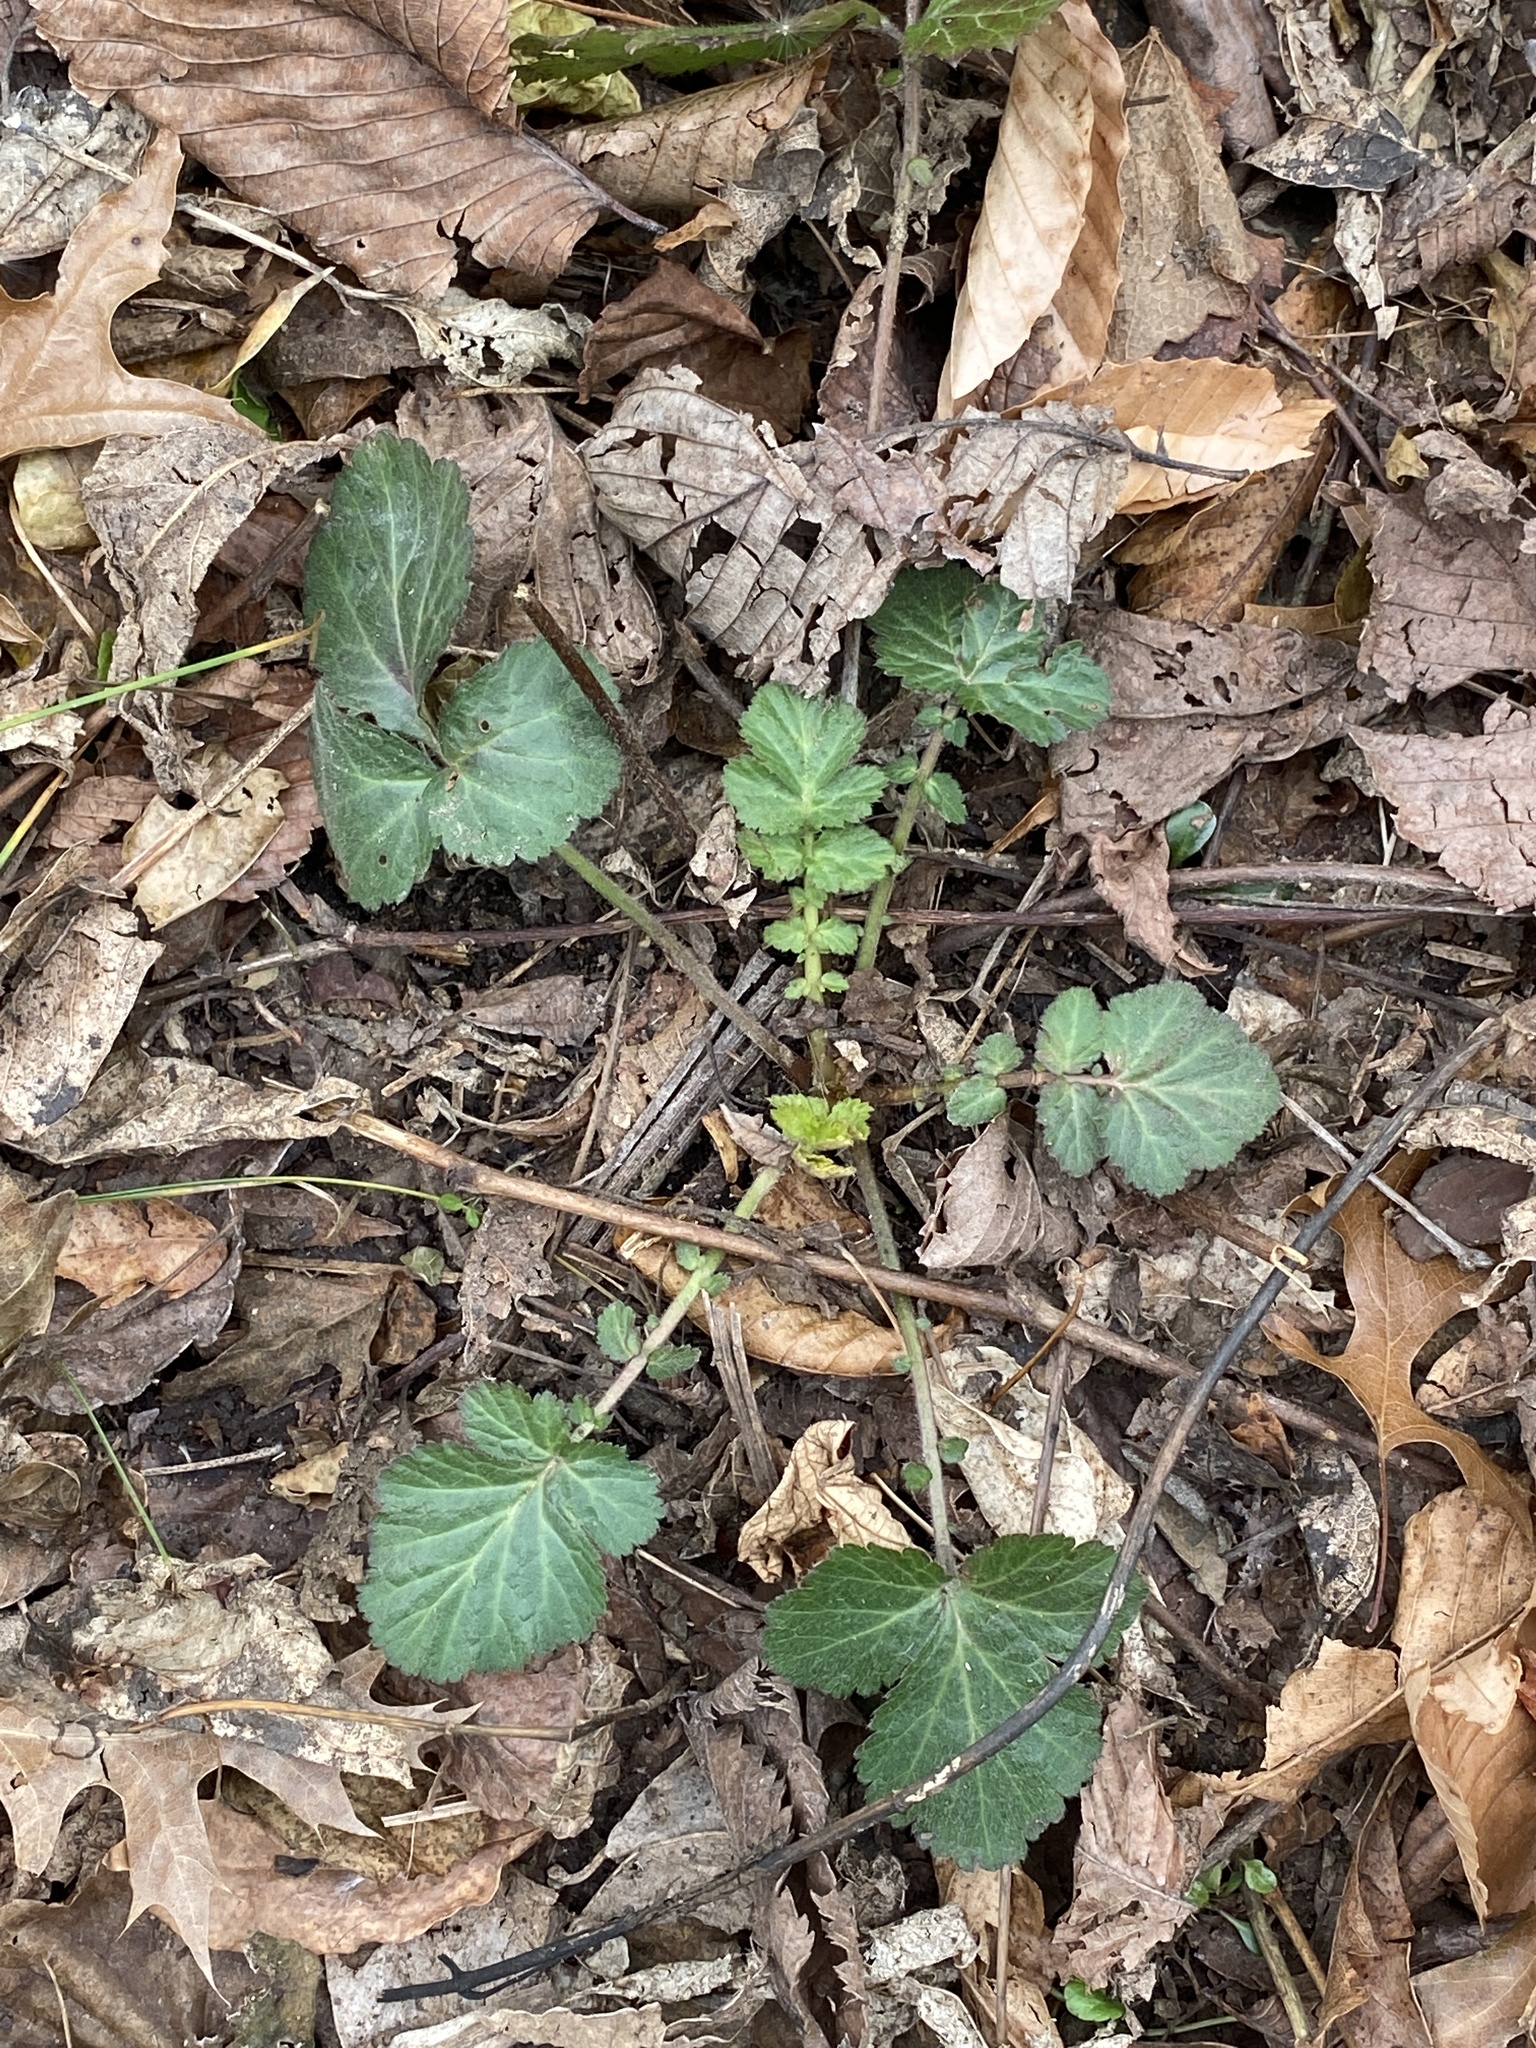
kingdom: Plantae
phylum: Tracheophyta
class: Magnoliopsida
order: Rosales
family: Rosaceae
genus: Geum
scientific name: Geum canadense
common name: White avens
